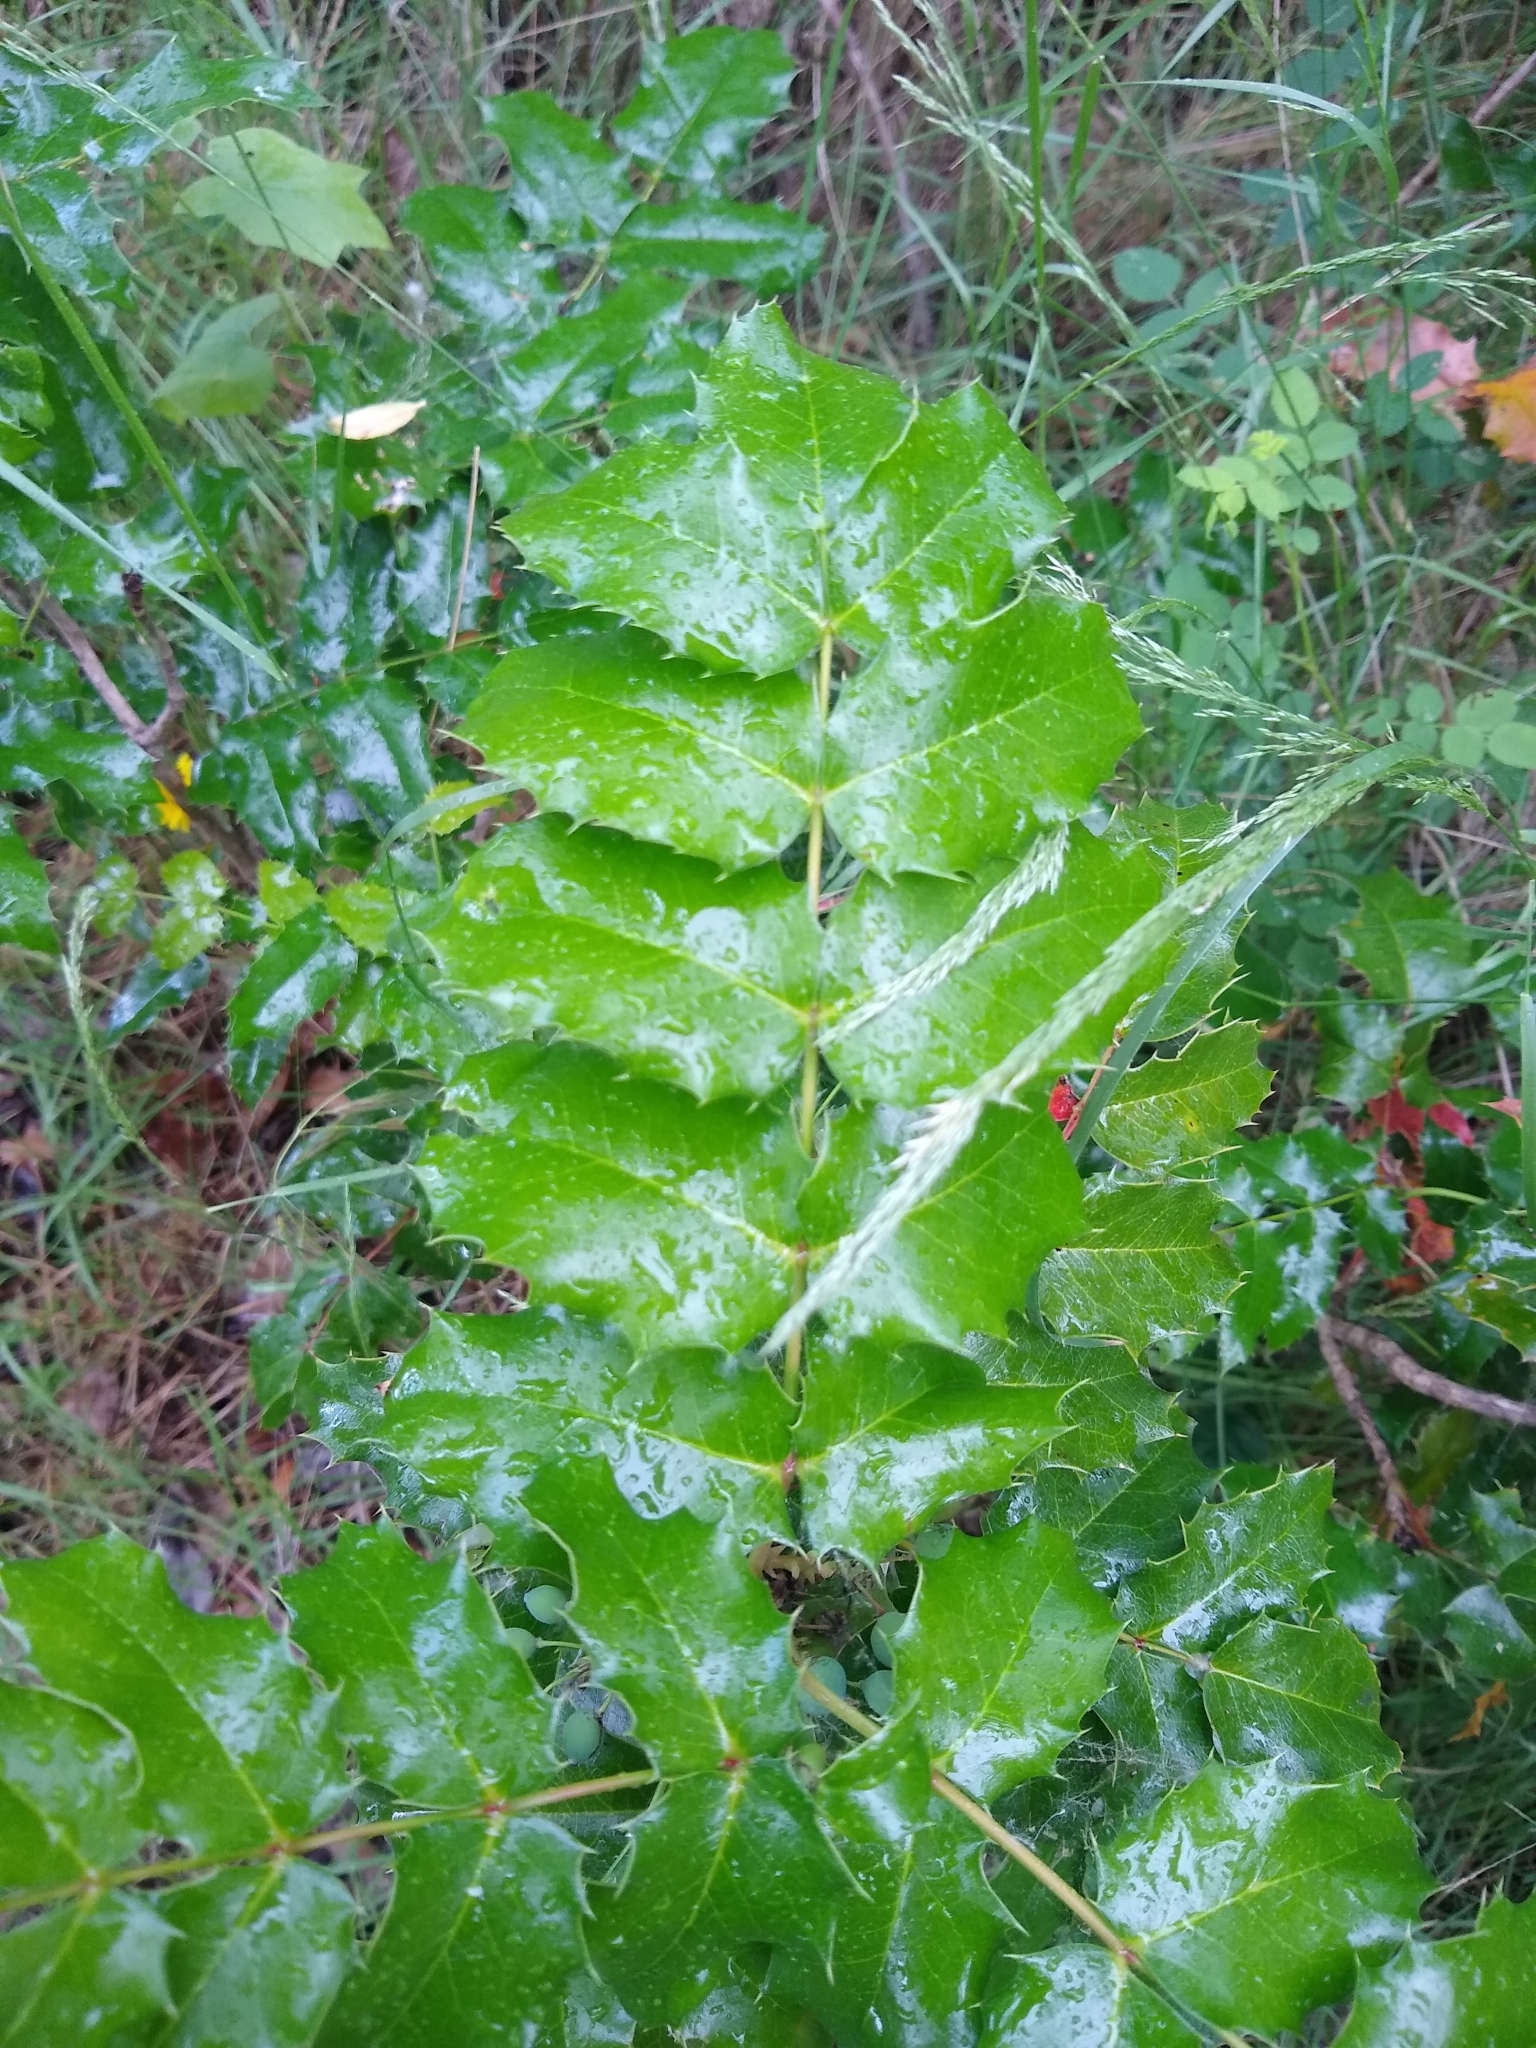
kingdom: Plantae
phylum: Tracheophyta
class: Magnoliopsida
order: Ranunculales
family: Berberidaceae
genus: Mahonia
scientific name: Mahonia aquifolium
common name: Oregon-grape
